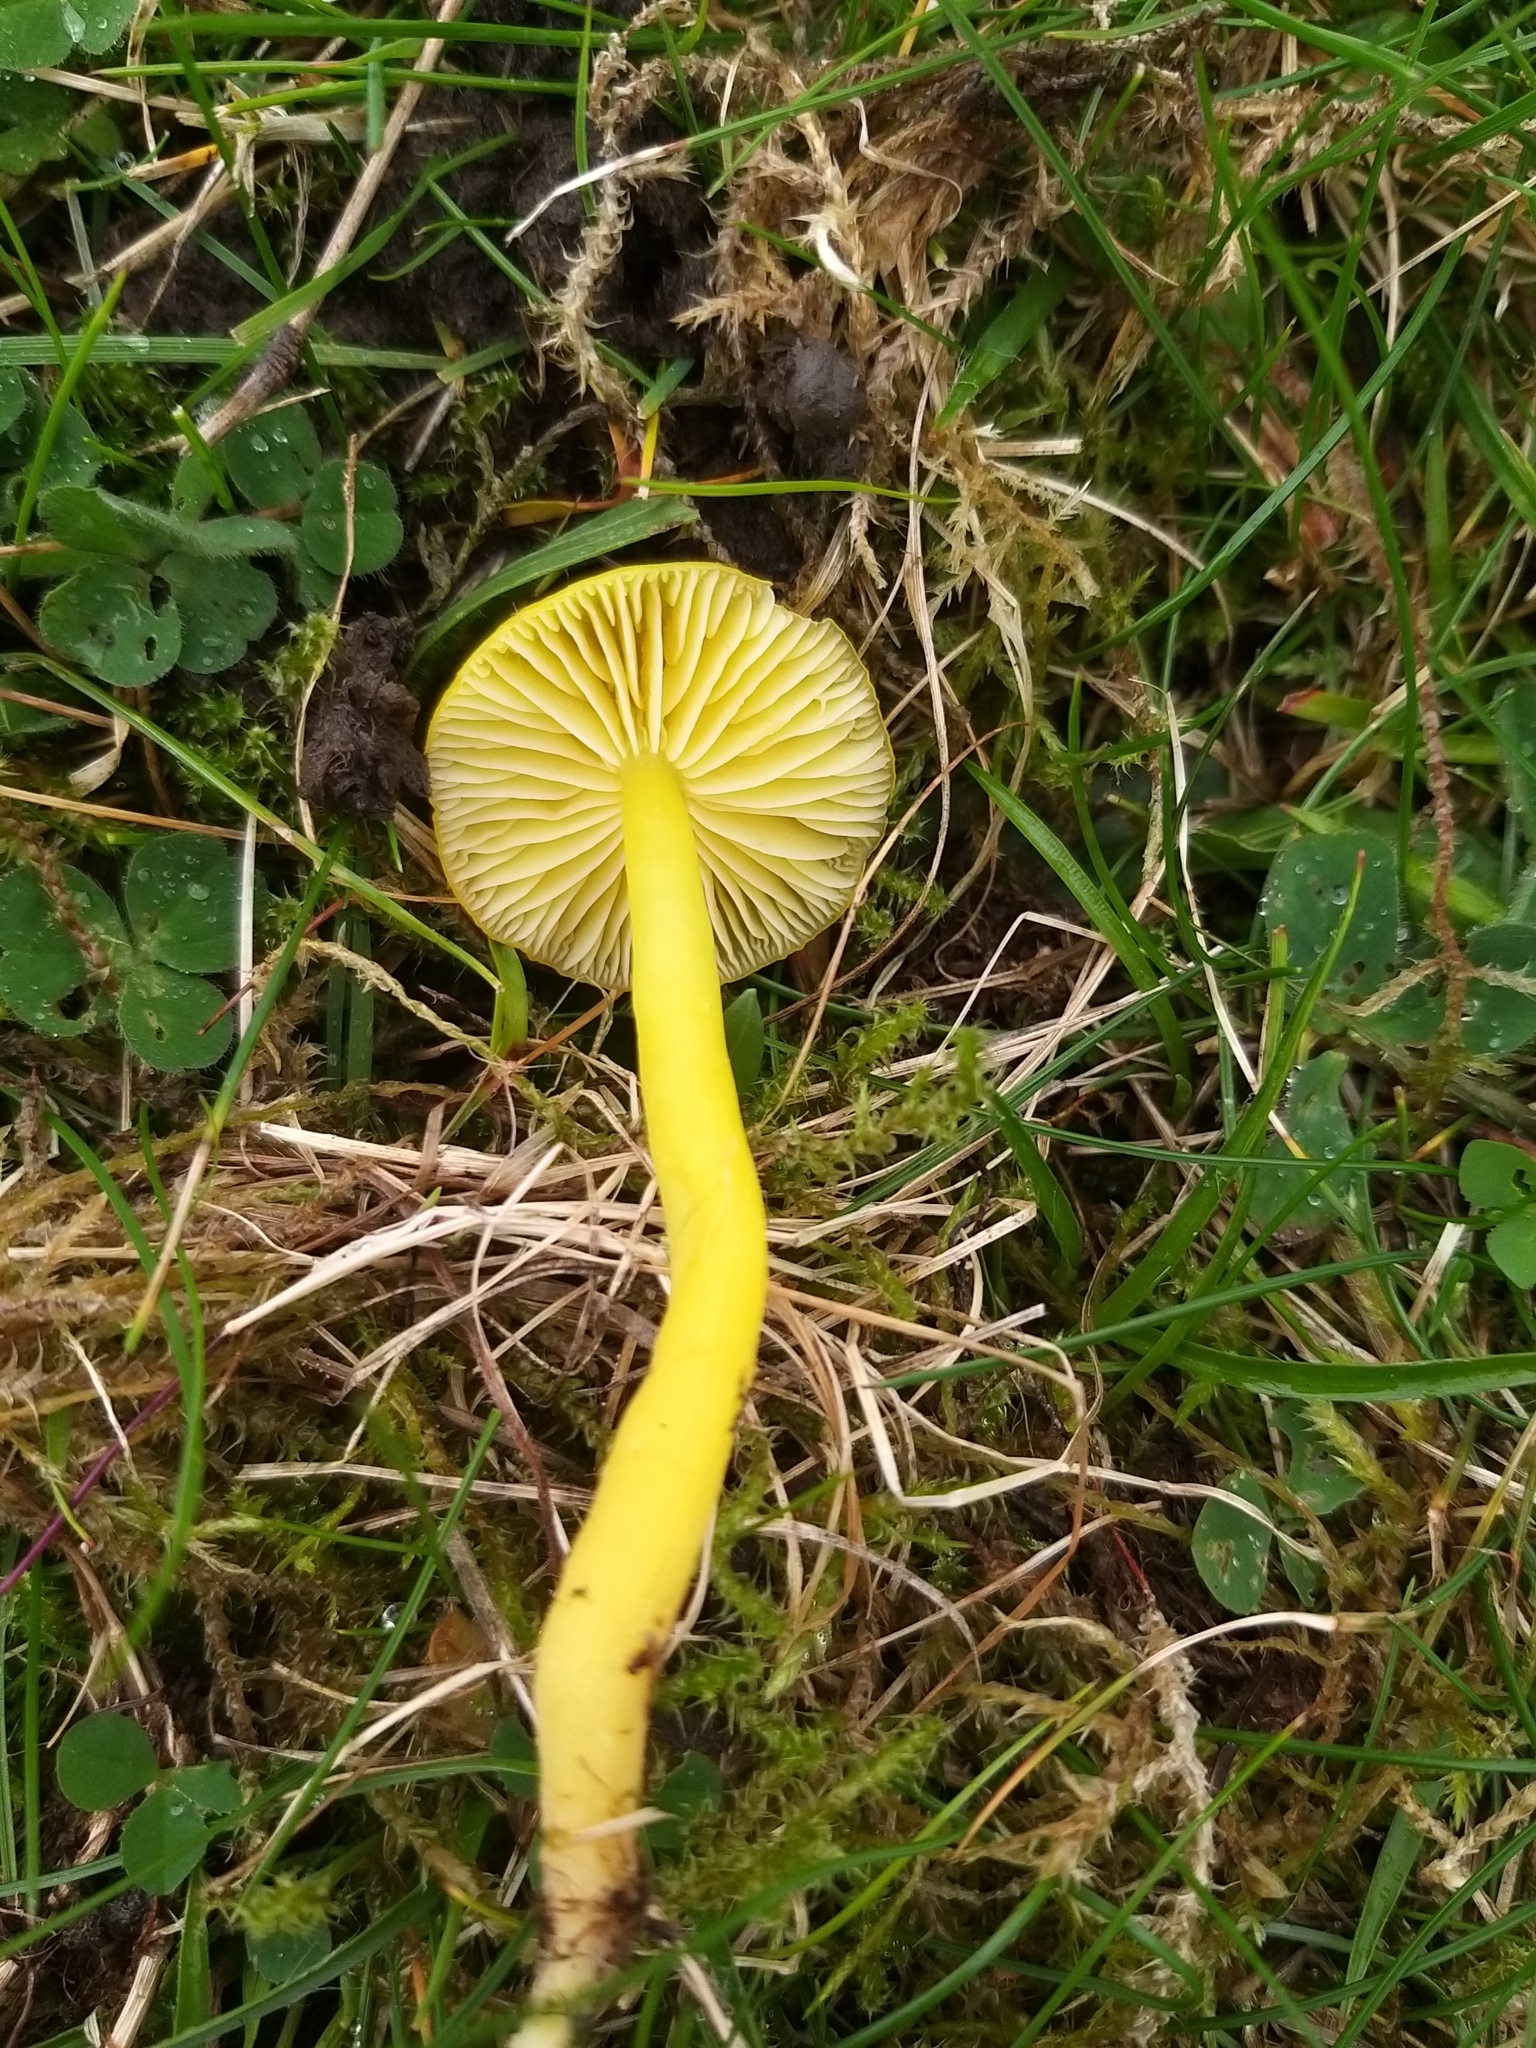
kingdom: Fungi
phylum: Basidiomycota
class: Agaricomycetes
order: Agaricales
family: Hygrophoraceae
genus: Hygrocybe
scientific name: Hygrocybe ceracea
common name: Butter waxcap
